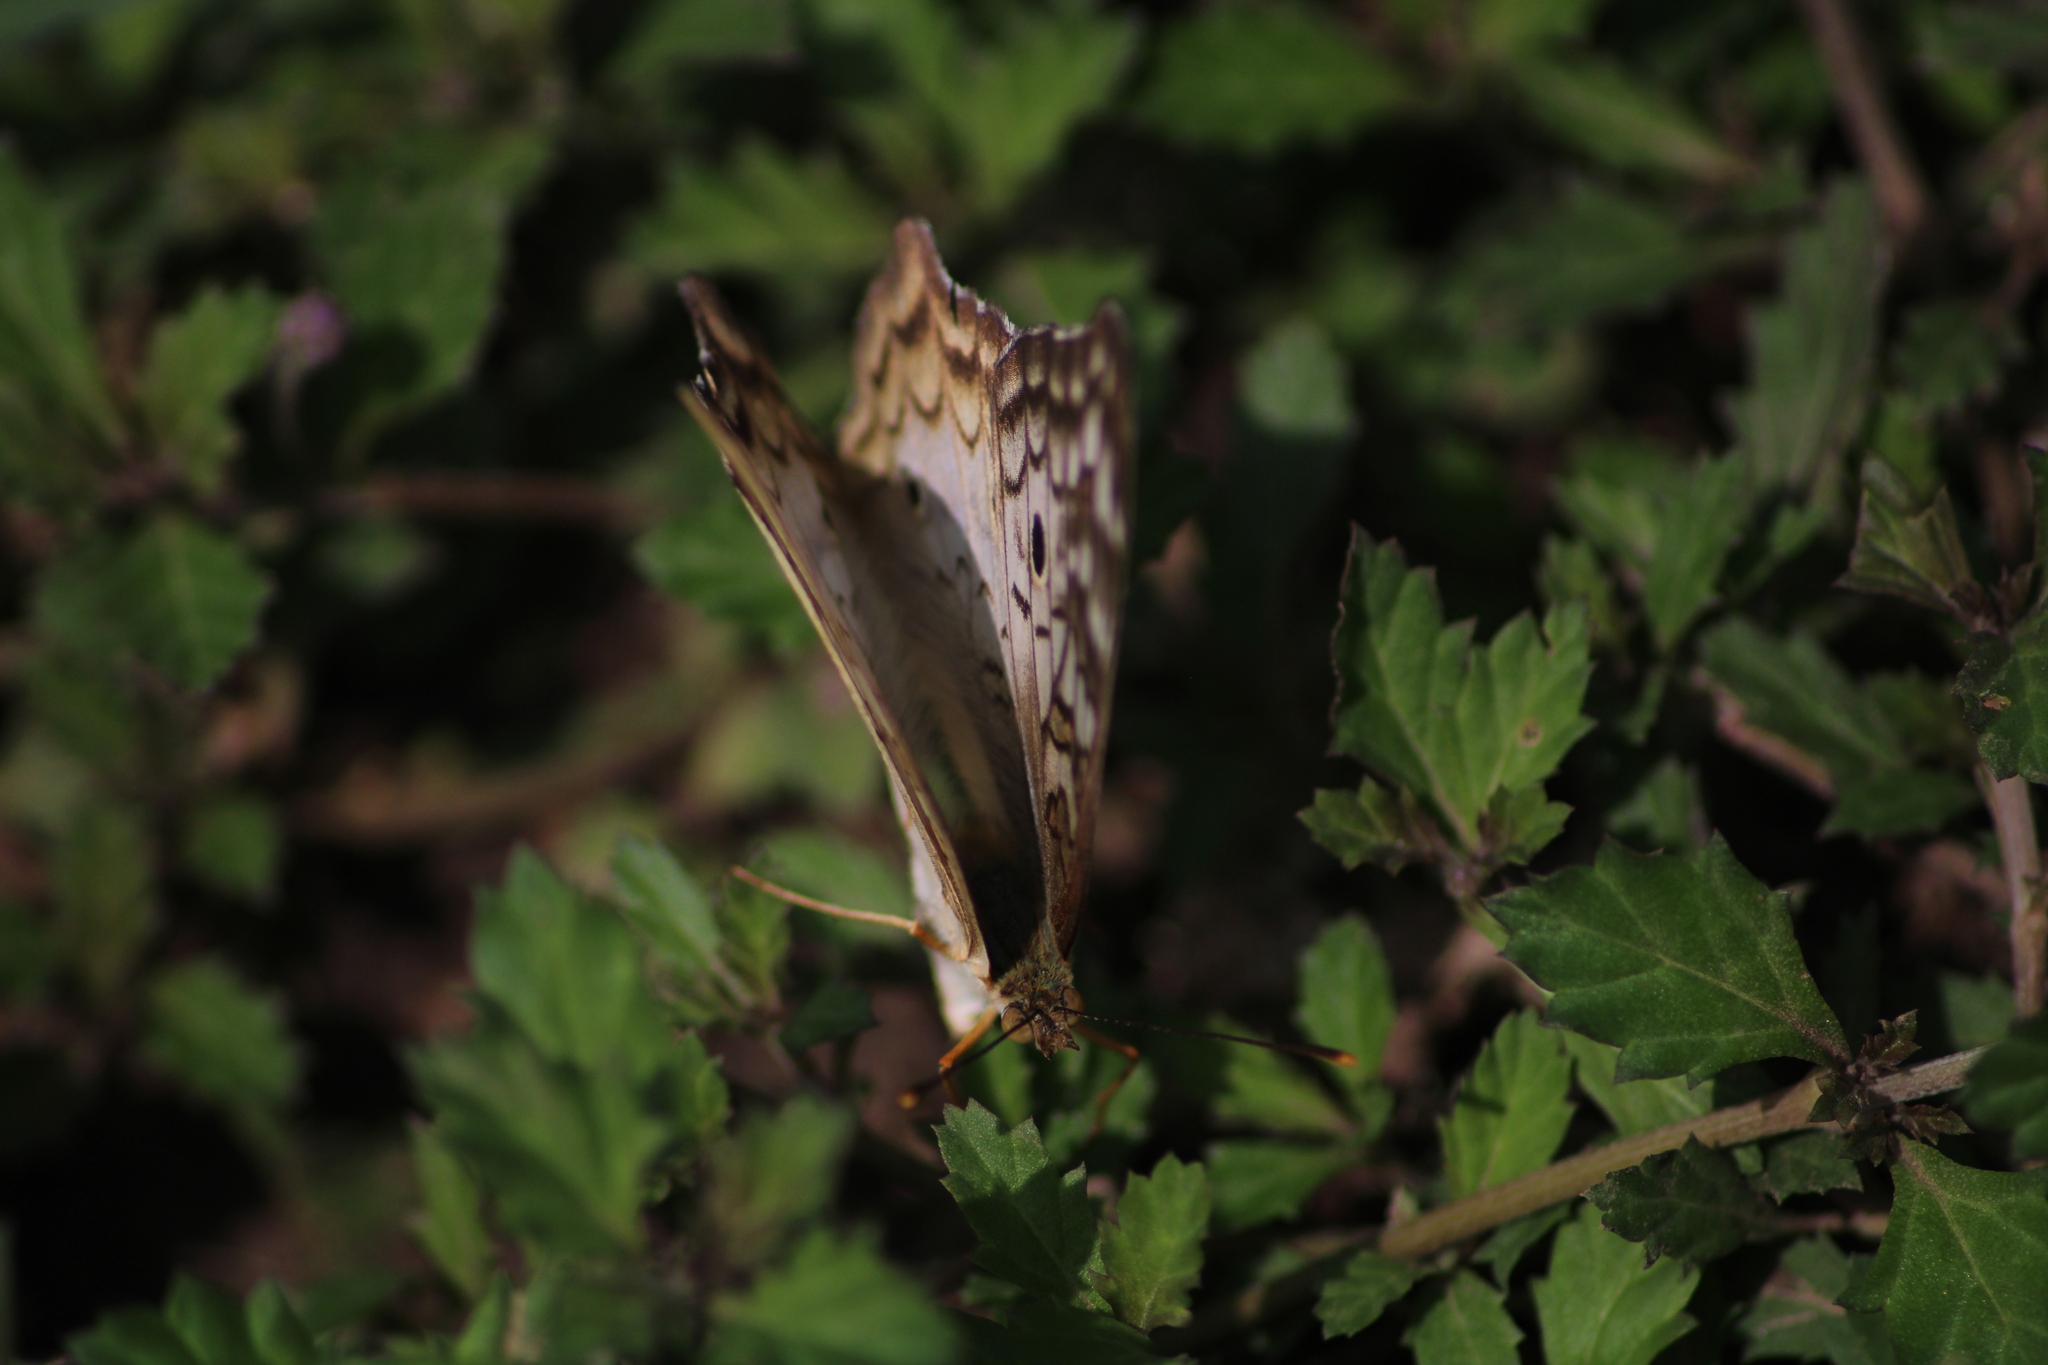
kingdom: Animalia
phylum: Arthropoda
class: Insecta
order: Lepidoptera
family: Nymphalidae
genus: Anartia
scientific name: Anartia jatrophae
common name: White peacock
